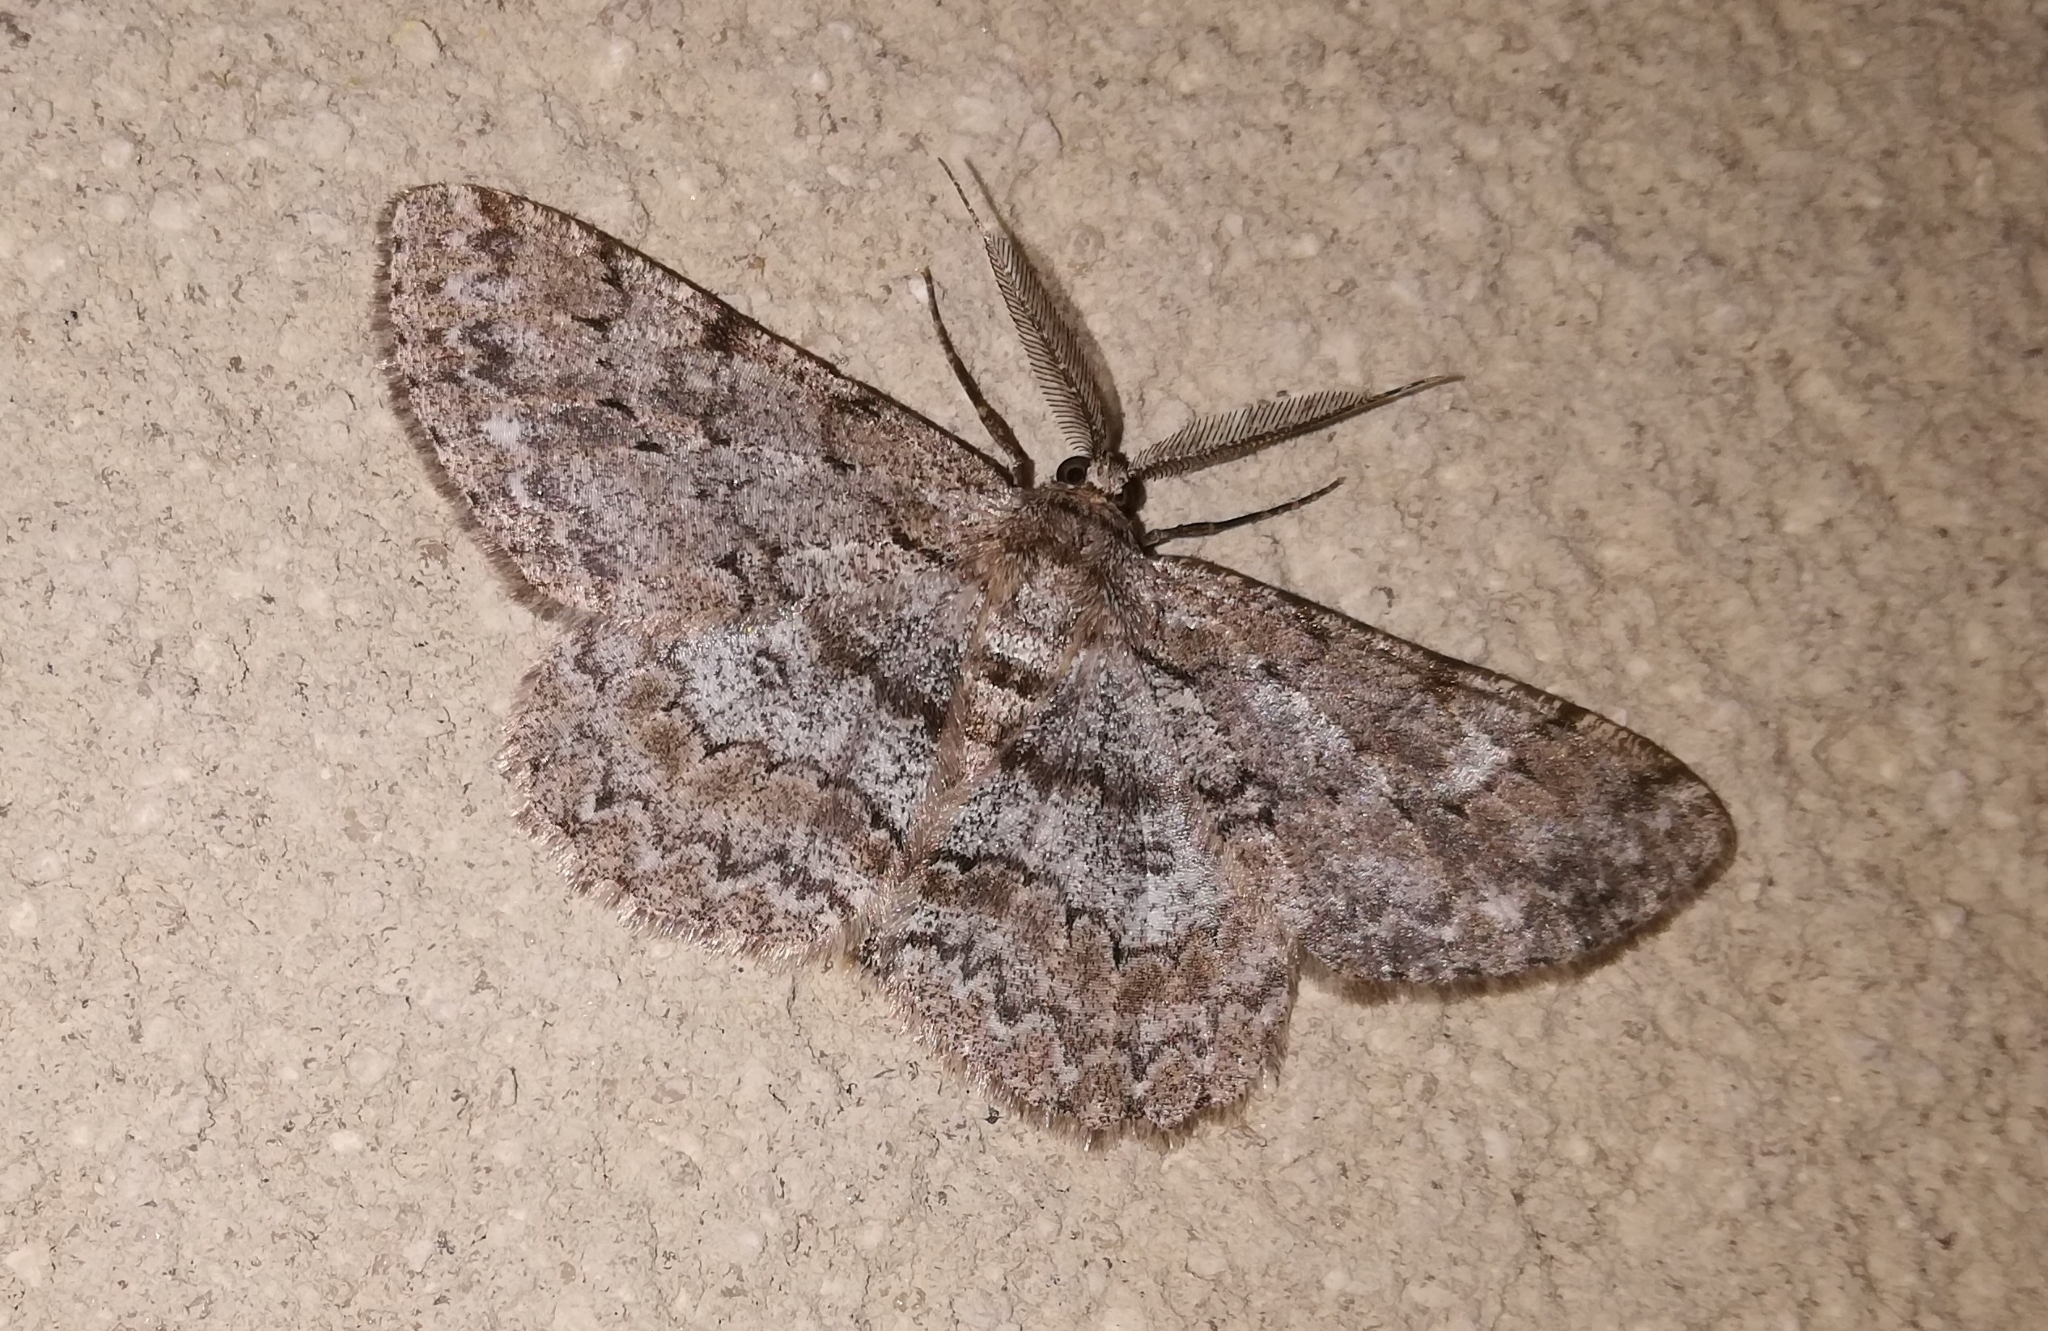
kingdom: Animalia
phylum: Arthropoda
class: Insecta
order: Lepidoptera
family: Geometridae
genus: Hypomecis
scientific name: Hypomecis punctinalis
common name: Pale oak beauty
